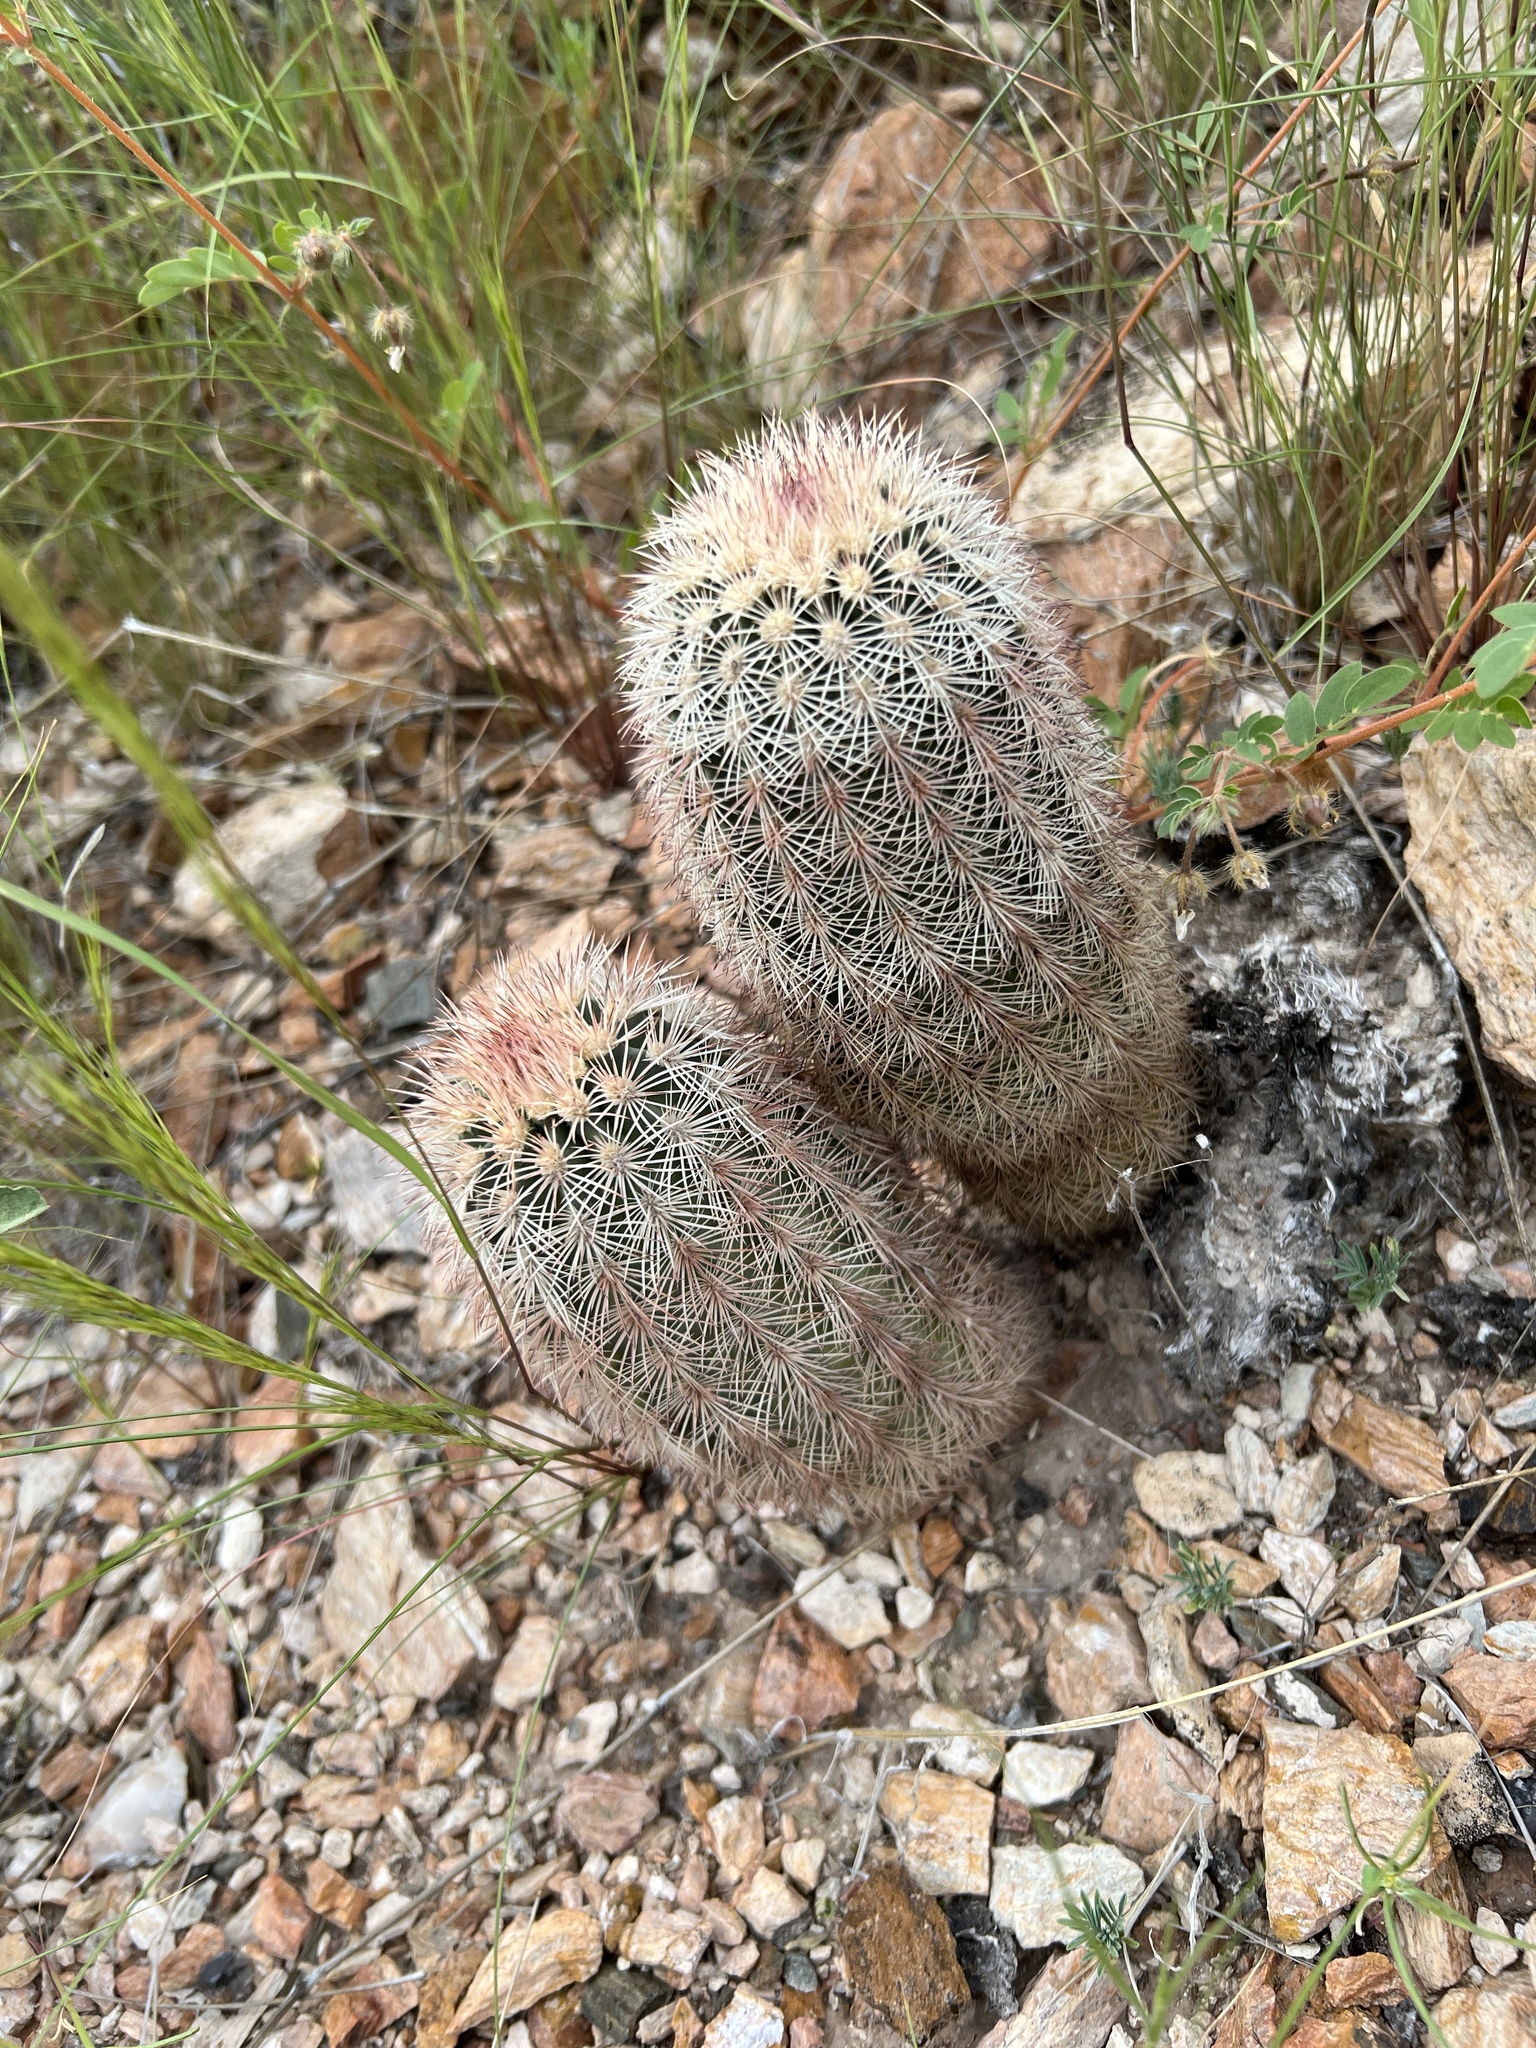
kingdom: Plantae
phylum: Tracheophyta
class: Magnoliopsida
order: Caryophyllales
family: Cactaceae
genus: Echinocereus
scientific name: Echinocereus dasyacanthus
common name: Spiny hedgehog cactus
